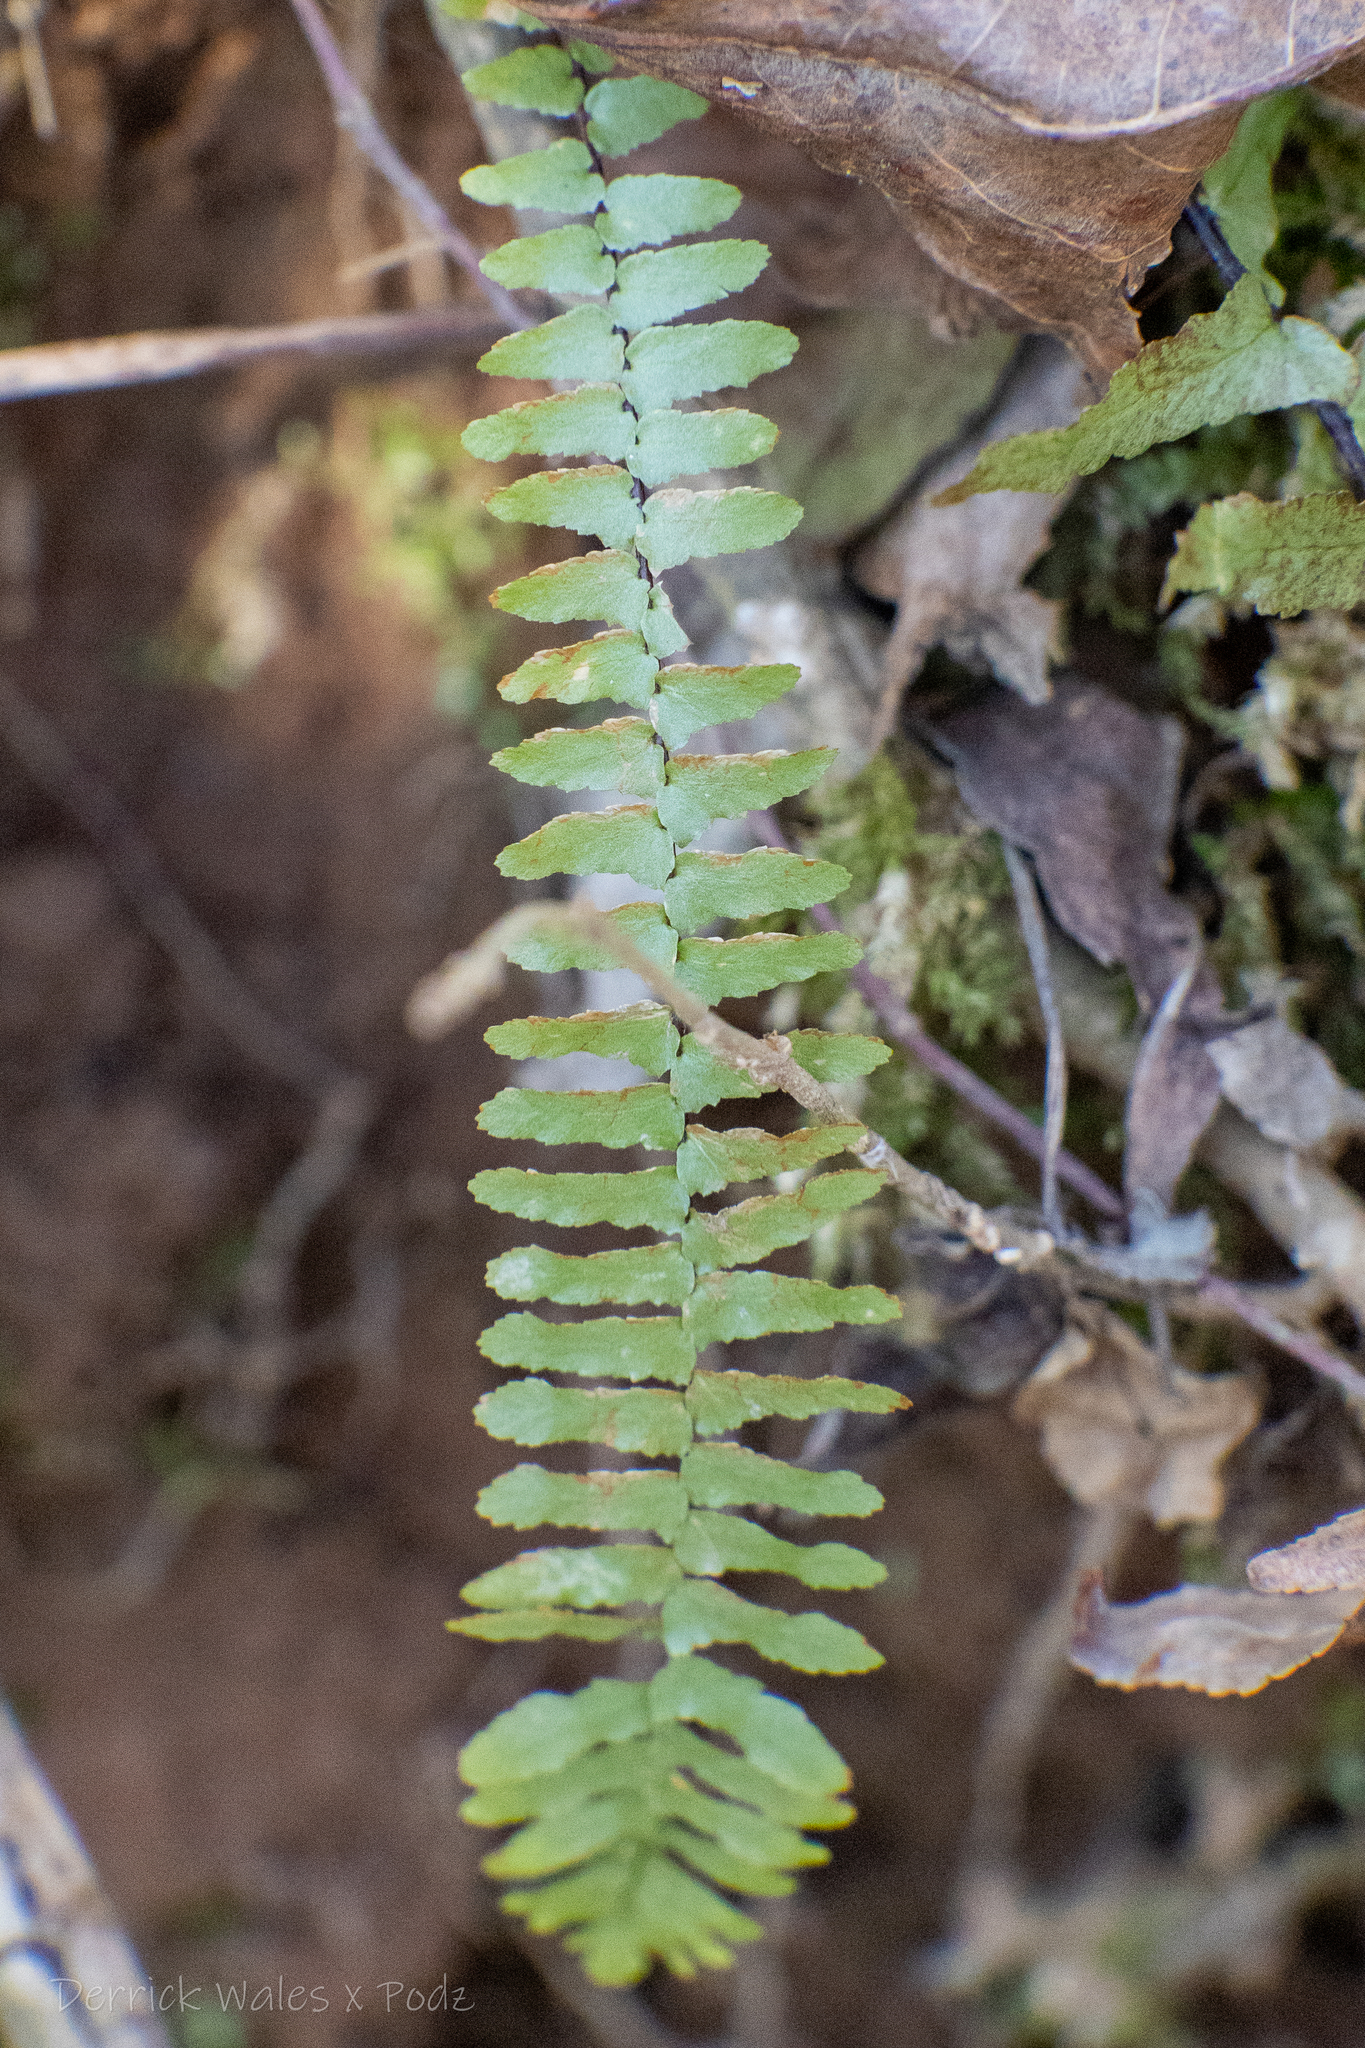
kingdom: Plantae
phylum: Tracheophyta
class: Polypodiopsida
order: Polypodiales
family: Aspleniaceae
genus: Asplenium
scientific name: Asplenium platyneuron
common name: Ebony spleenwort
